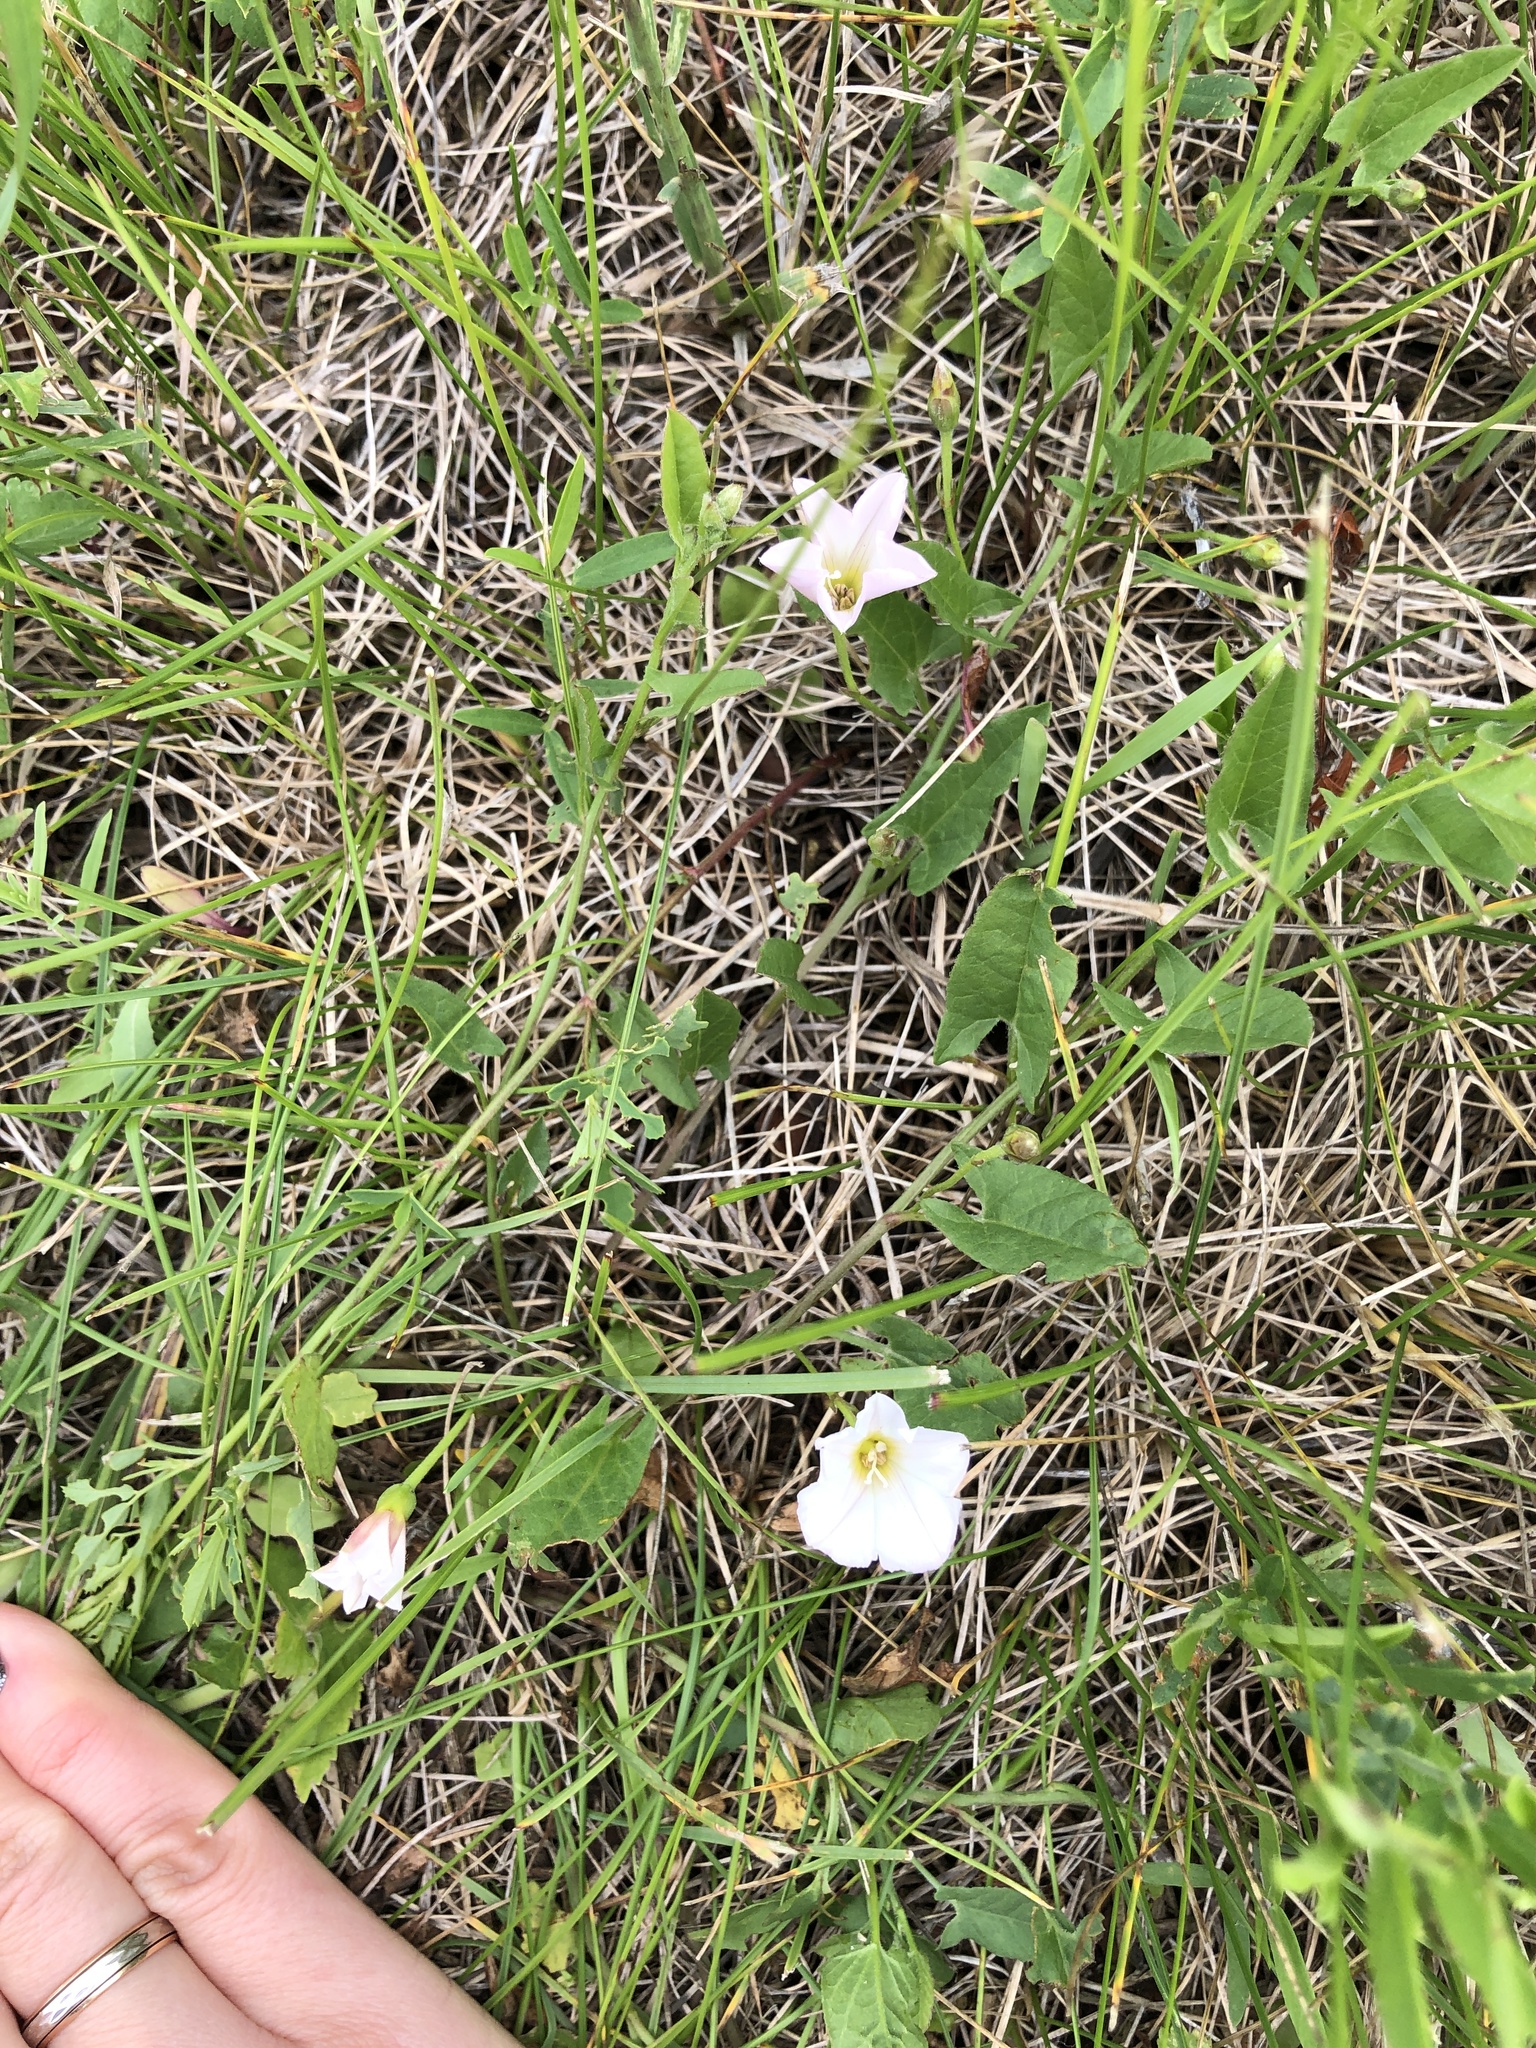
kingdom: Plantae
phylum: Tracheophyta
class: Magnoliopsida
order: Solanales
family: Convolvulaceae
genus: Convolvulus
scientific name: Convolvulus arvensis
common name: Field bindweed
